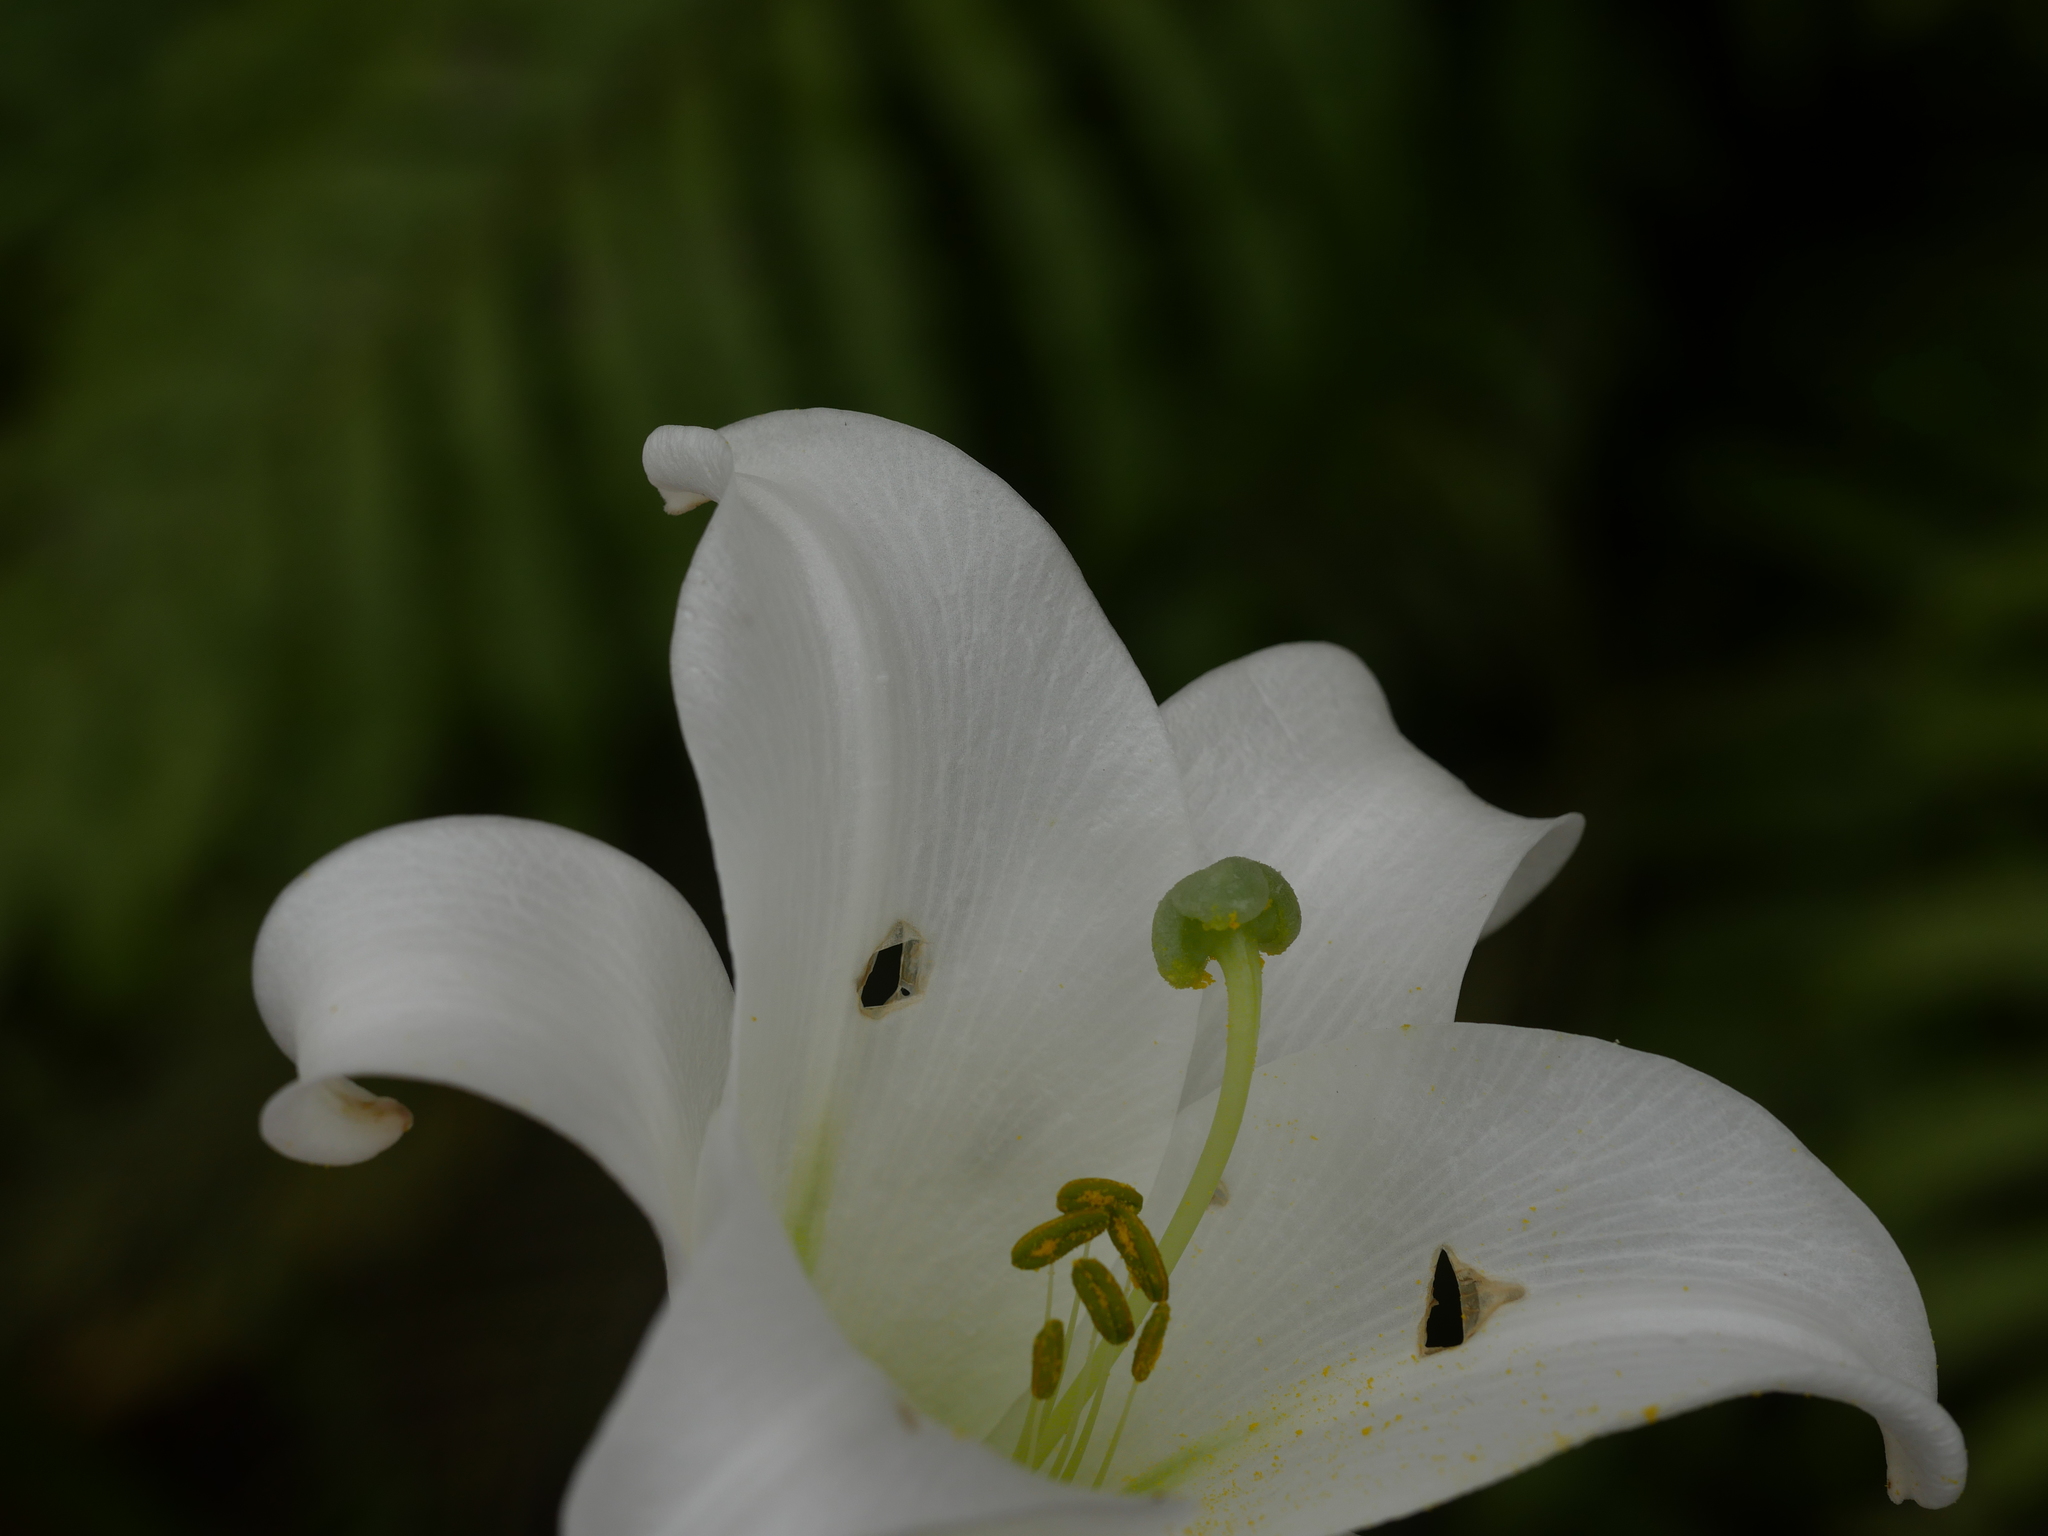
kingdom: Plantae
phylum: Tracheophyta
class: Liliopsida
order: Liliales
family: Liliaceae
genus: Lilium
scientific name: Lilium formosanum
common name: Formosa lily
